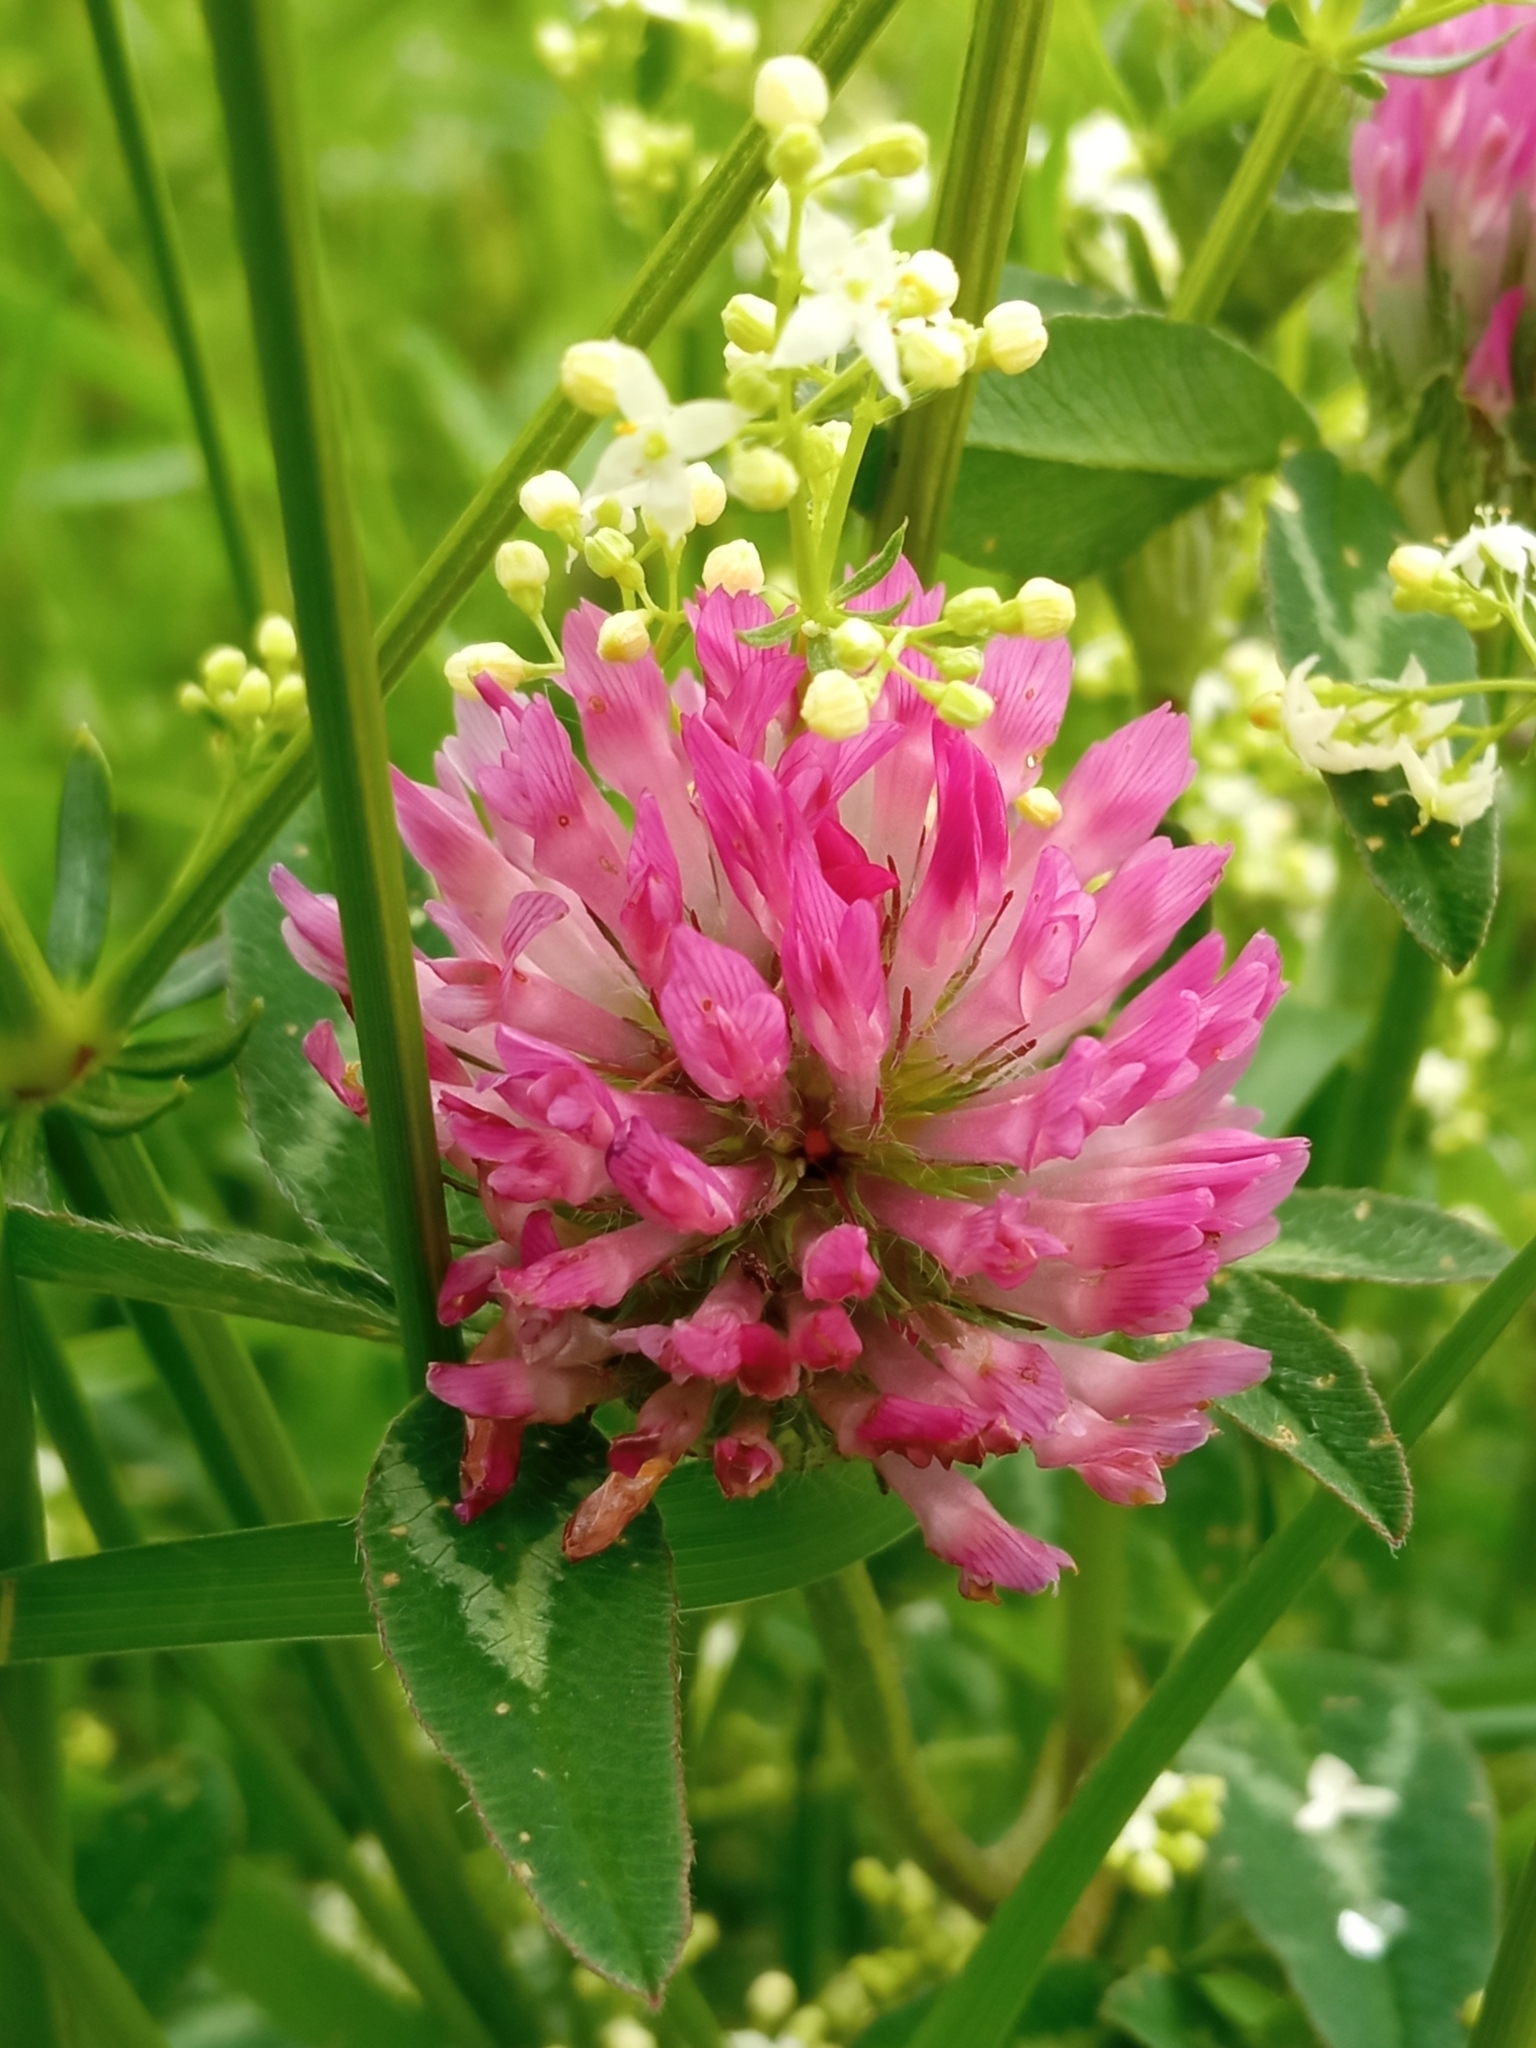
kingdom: Plantae
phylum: Tracheophyta
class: Magnoliopsida
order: Fabales
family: Fabaceae
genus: Trifolium
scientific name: Trifolium pratense
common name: Red clover
